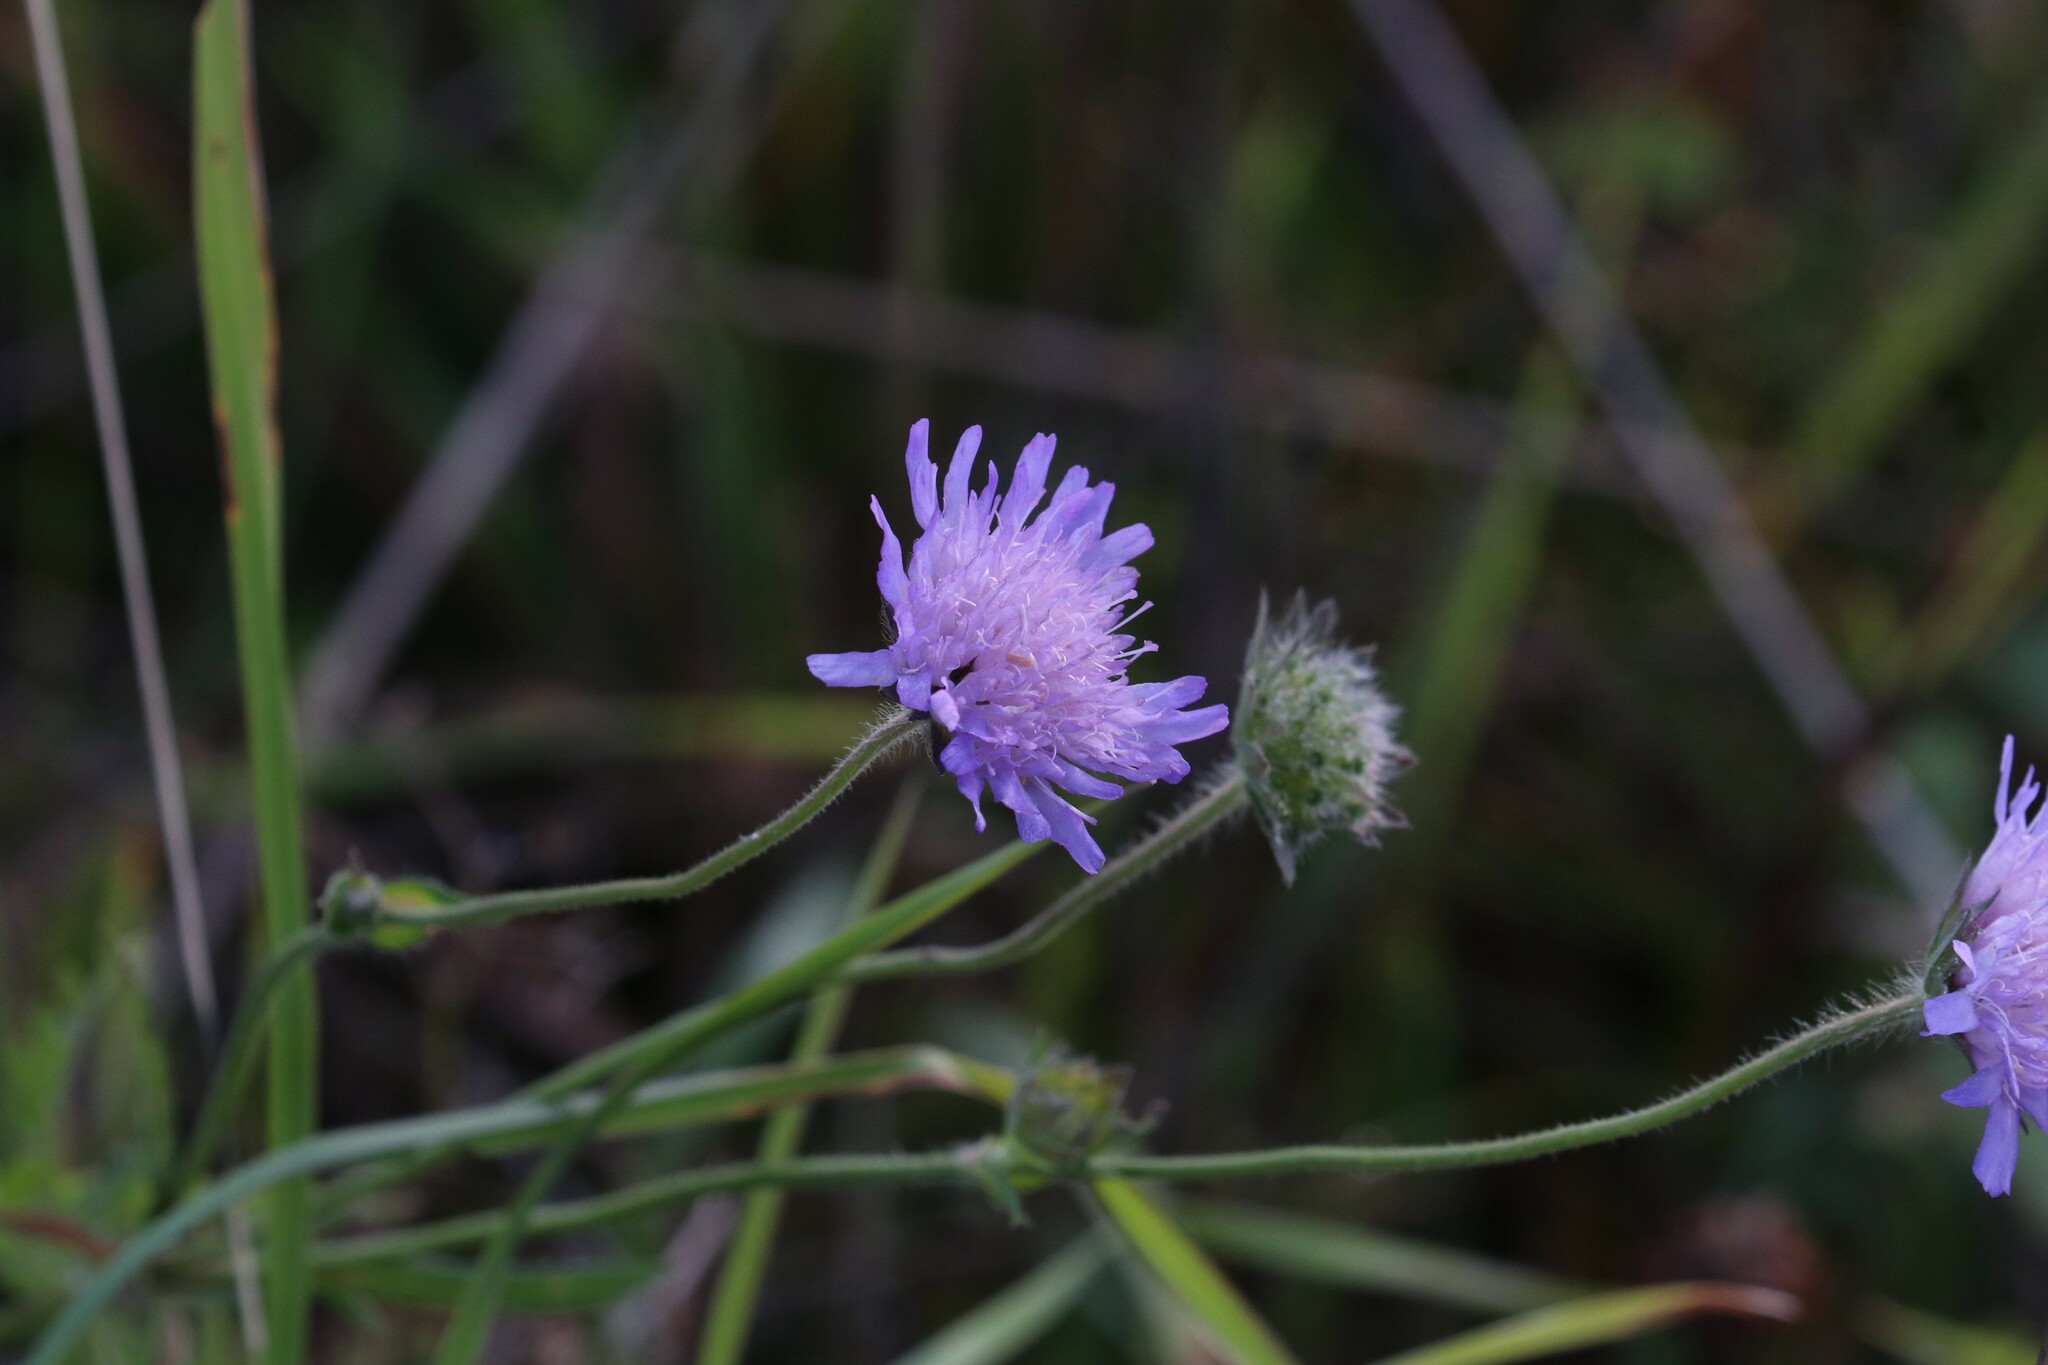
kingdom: Plantae
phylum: Tracheophyta
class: Magnoliopsida
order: Dipsacales
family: Caprifoliaceae
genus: Knautia
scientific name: Knautia arvensis
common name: Field scabiosa
